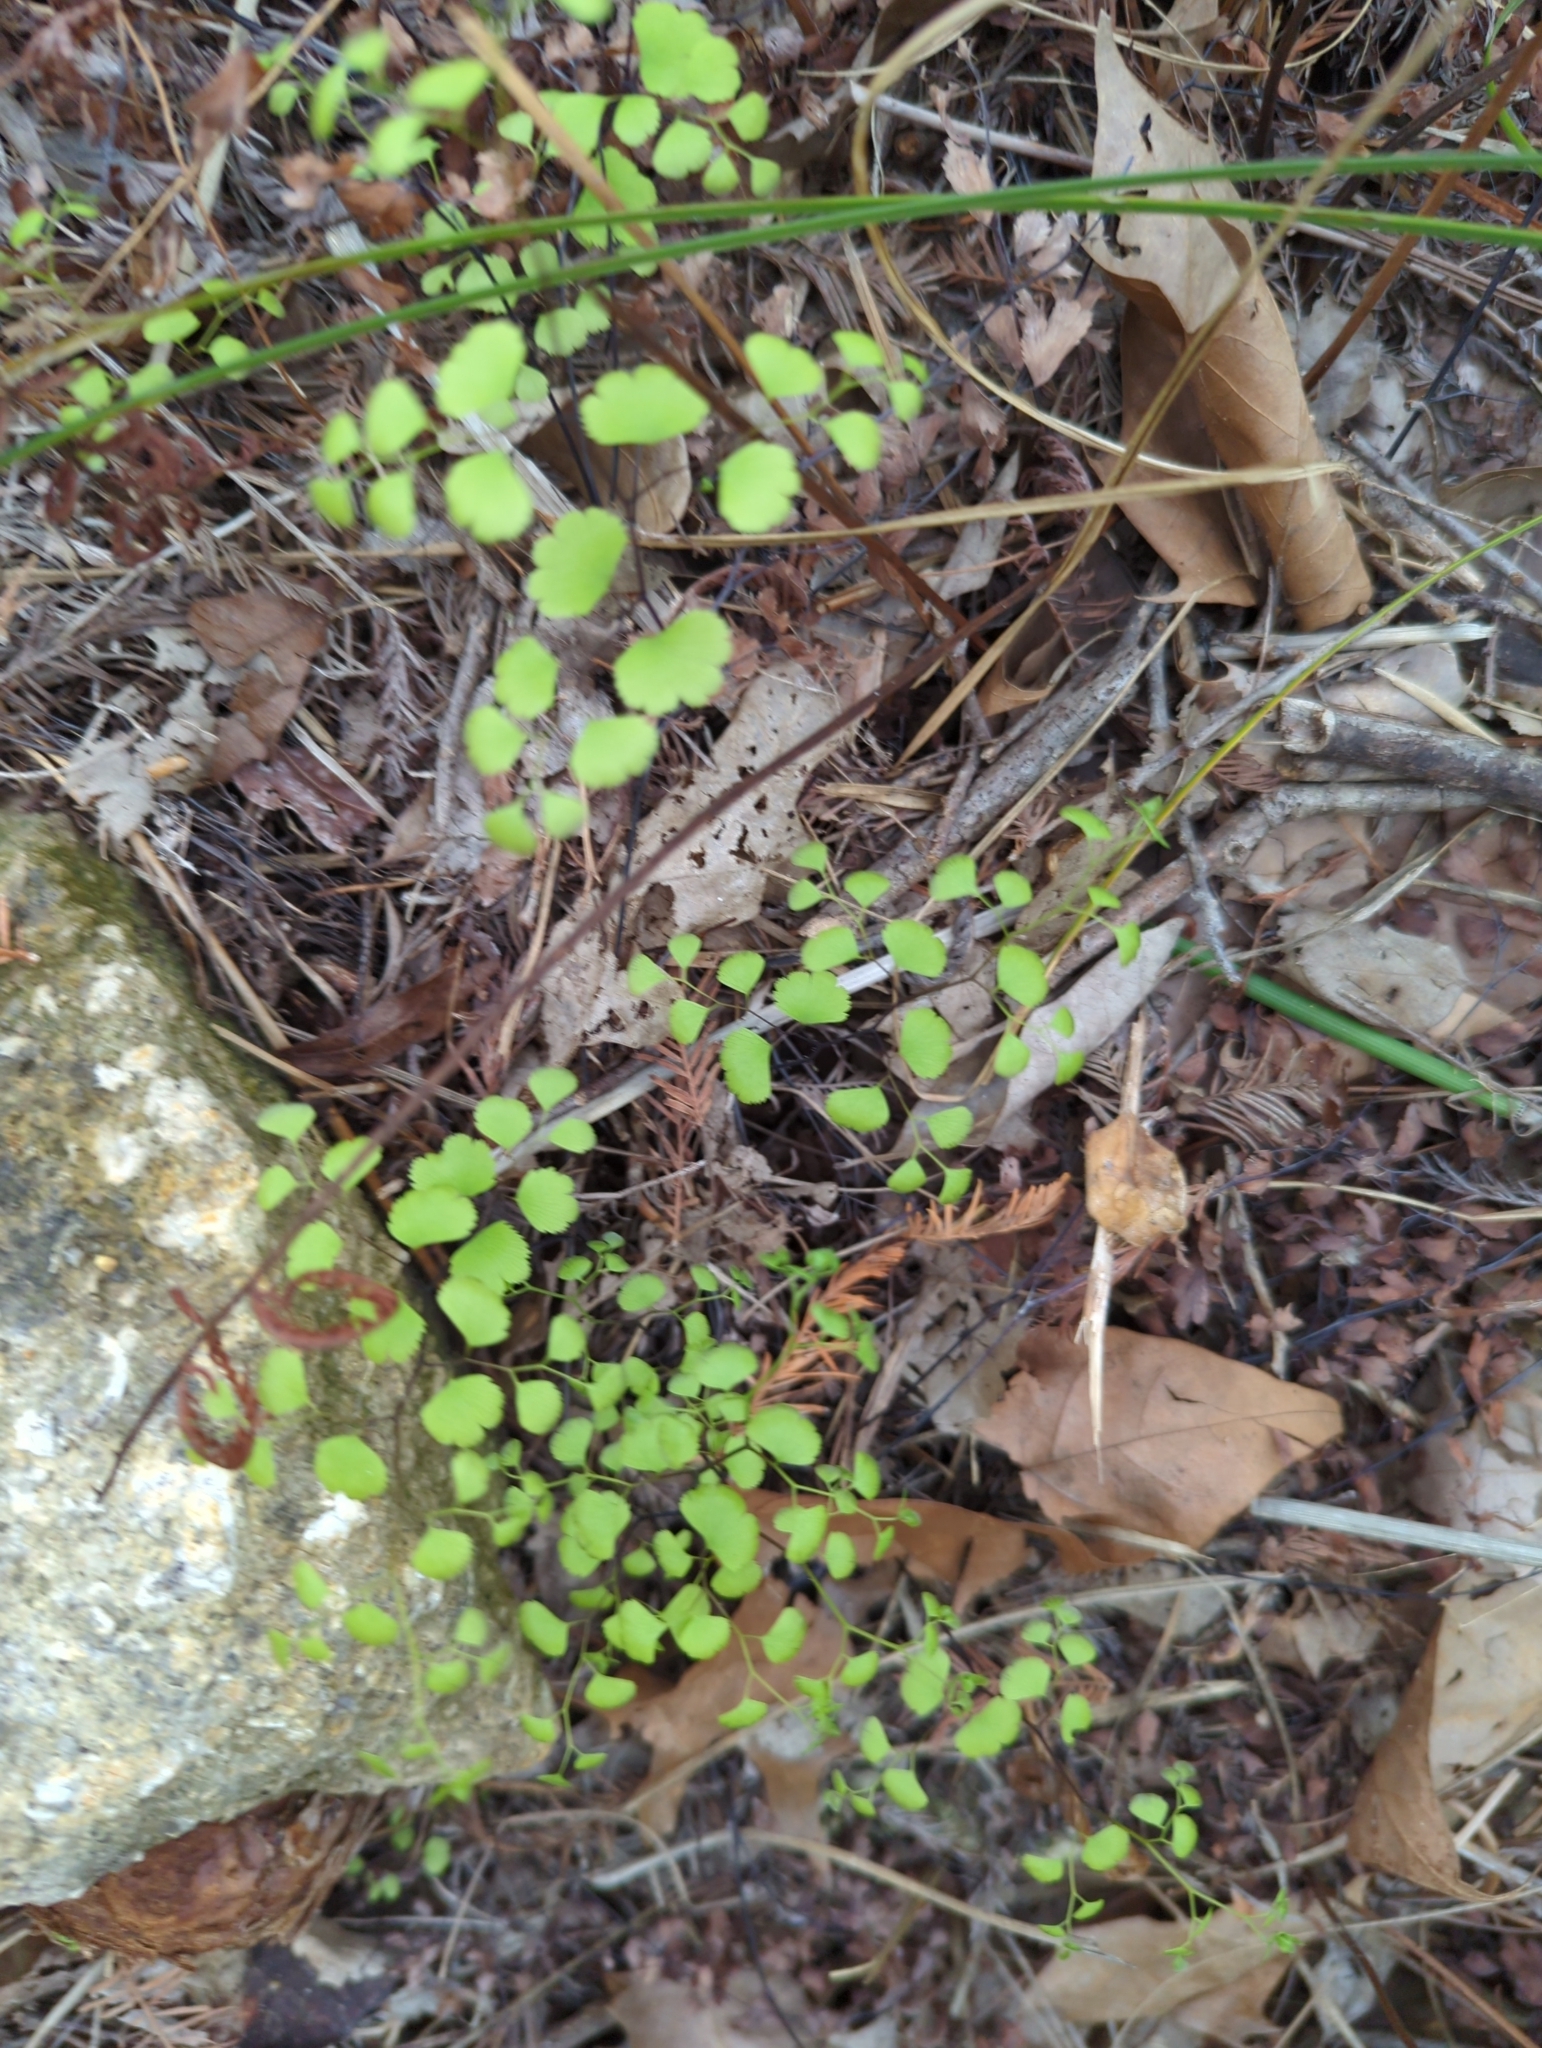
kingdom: Plantae
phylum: Tracheophyta
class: Polypodiopsida
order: Polypodiales
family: Pteridaceae
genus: Adiantum
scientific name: Adiantum capillus-veneris
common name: Maidenhair fern
